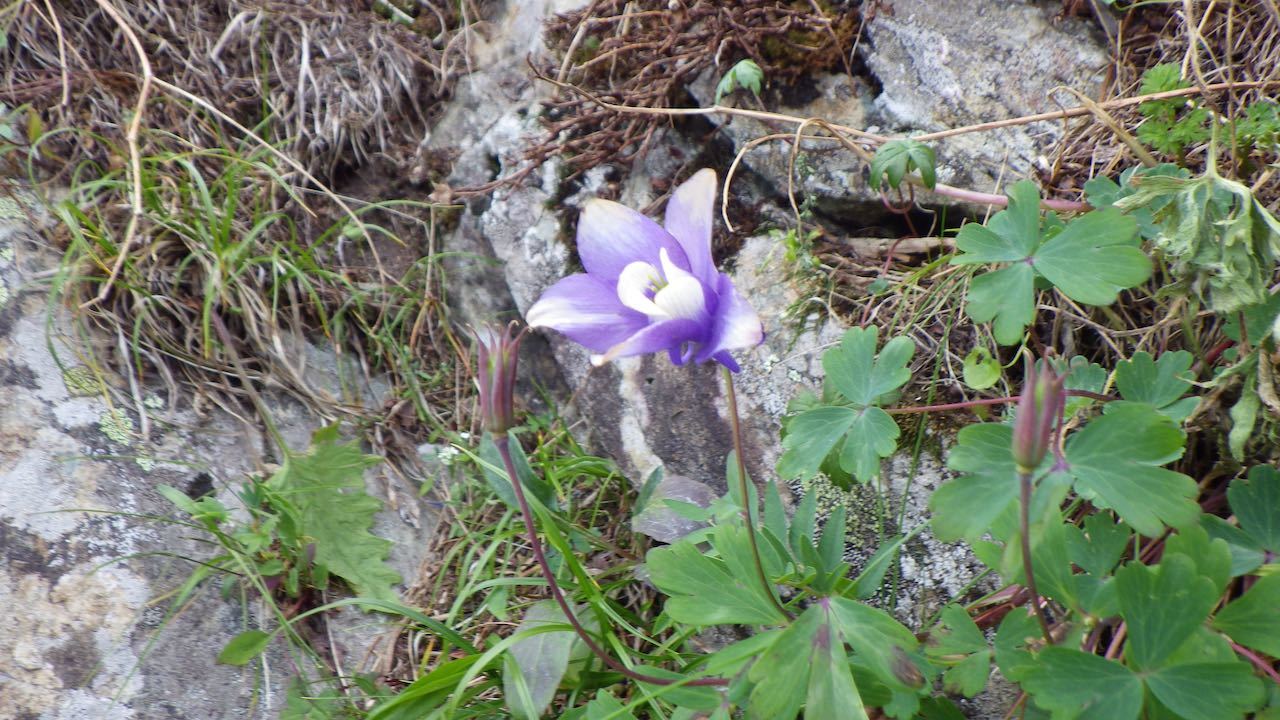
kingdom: Plantae
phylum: Tracheophyta
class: Magnoliopsida
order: Ranunculales
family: Ranunculaceae
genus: Aquilegia
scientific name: Aquilegia flabellata
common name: Fan columbine
